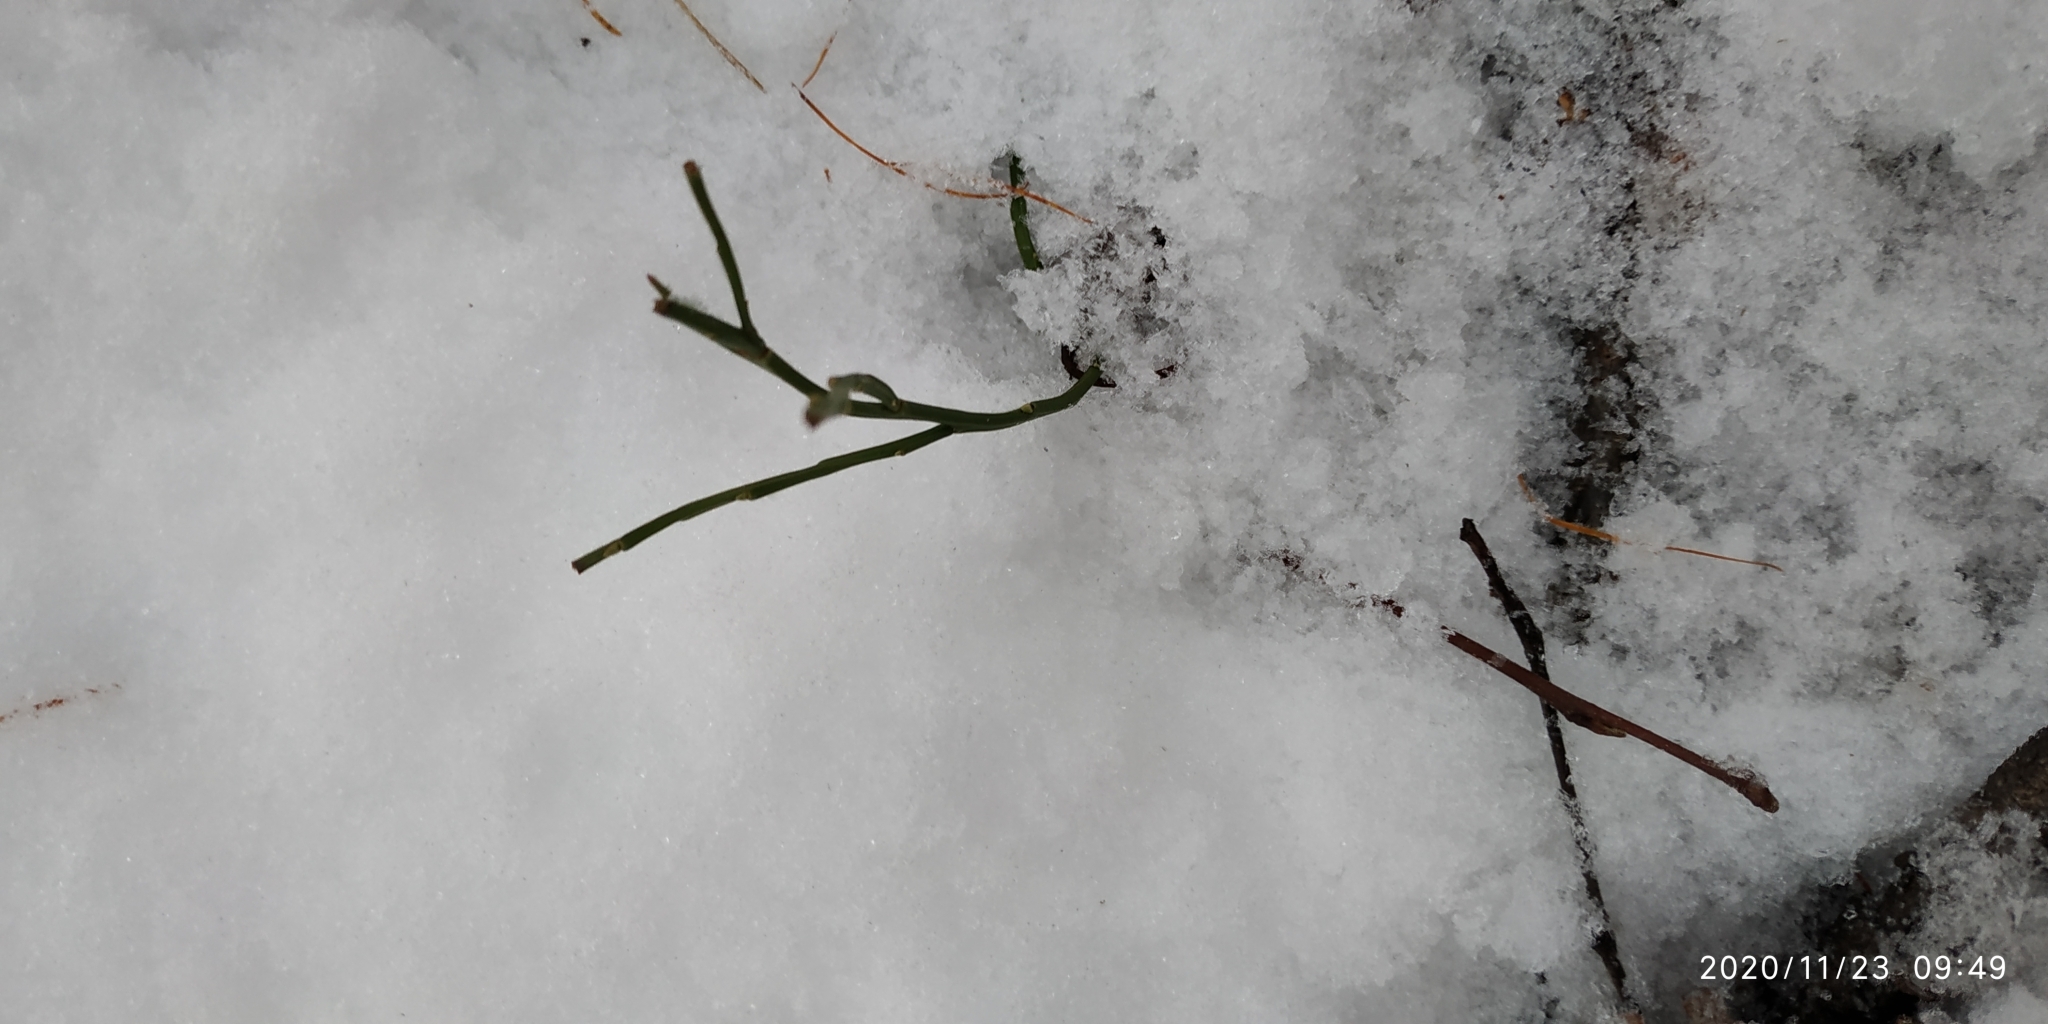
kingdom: Plantae
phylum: Tracheophyta
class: Magnoliopsida
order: Ericales
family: Ericaceae
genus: Vaccinium
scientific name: Vaccinium myrtillus
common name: Bilberry
